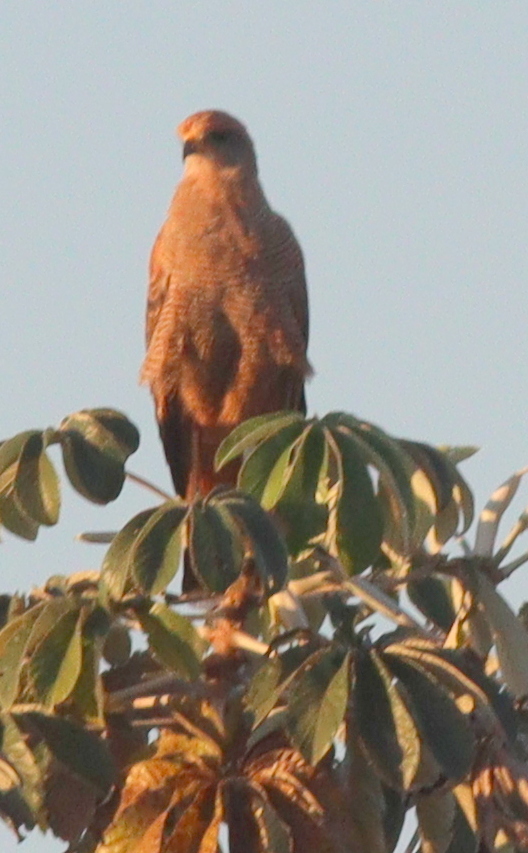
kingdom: Animalia
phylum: Chordata
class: Aves
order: Accipitriformes
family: Accipitridae
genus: Buteogallus
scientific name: Buteogallus meridionalis
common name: Savanna hawk
